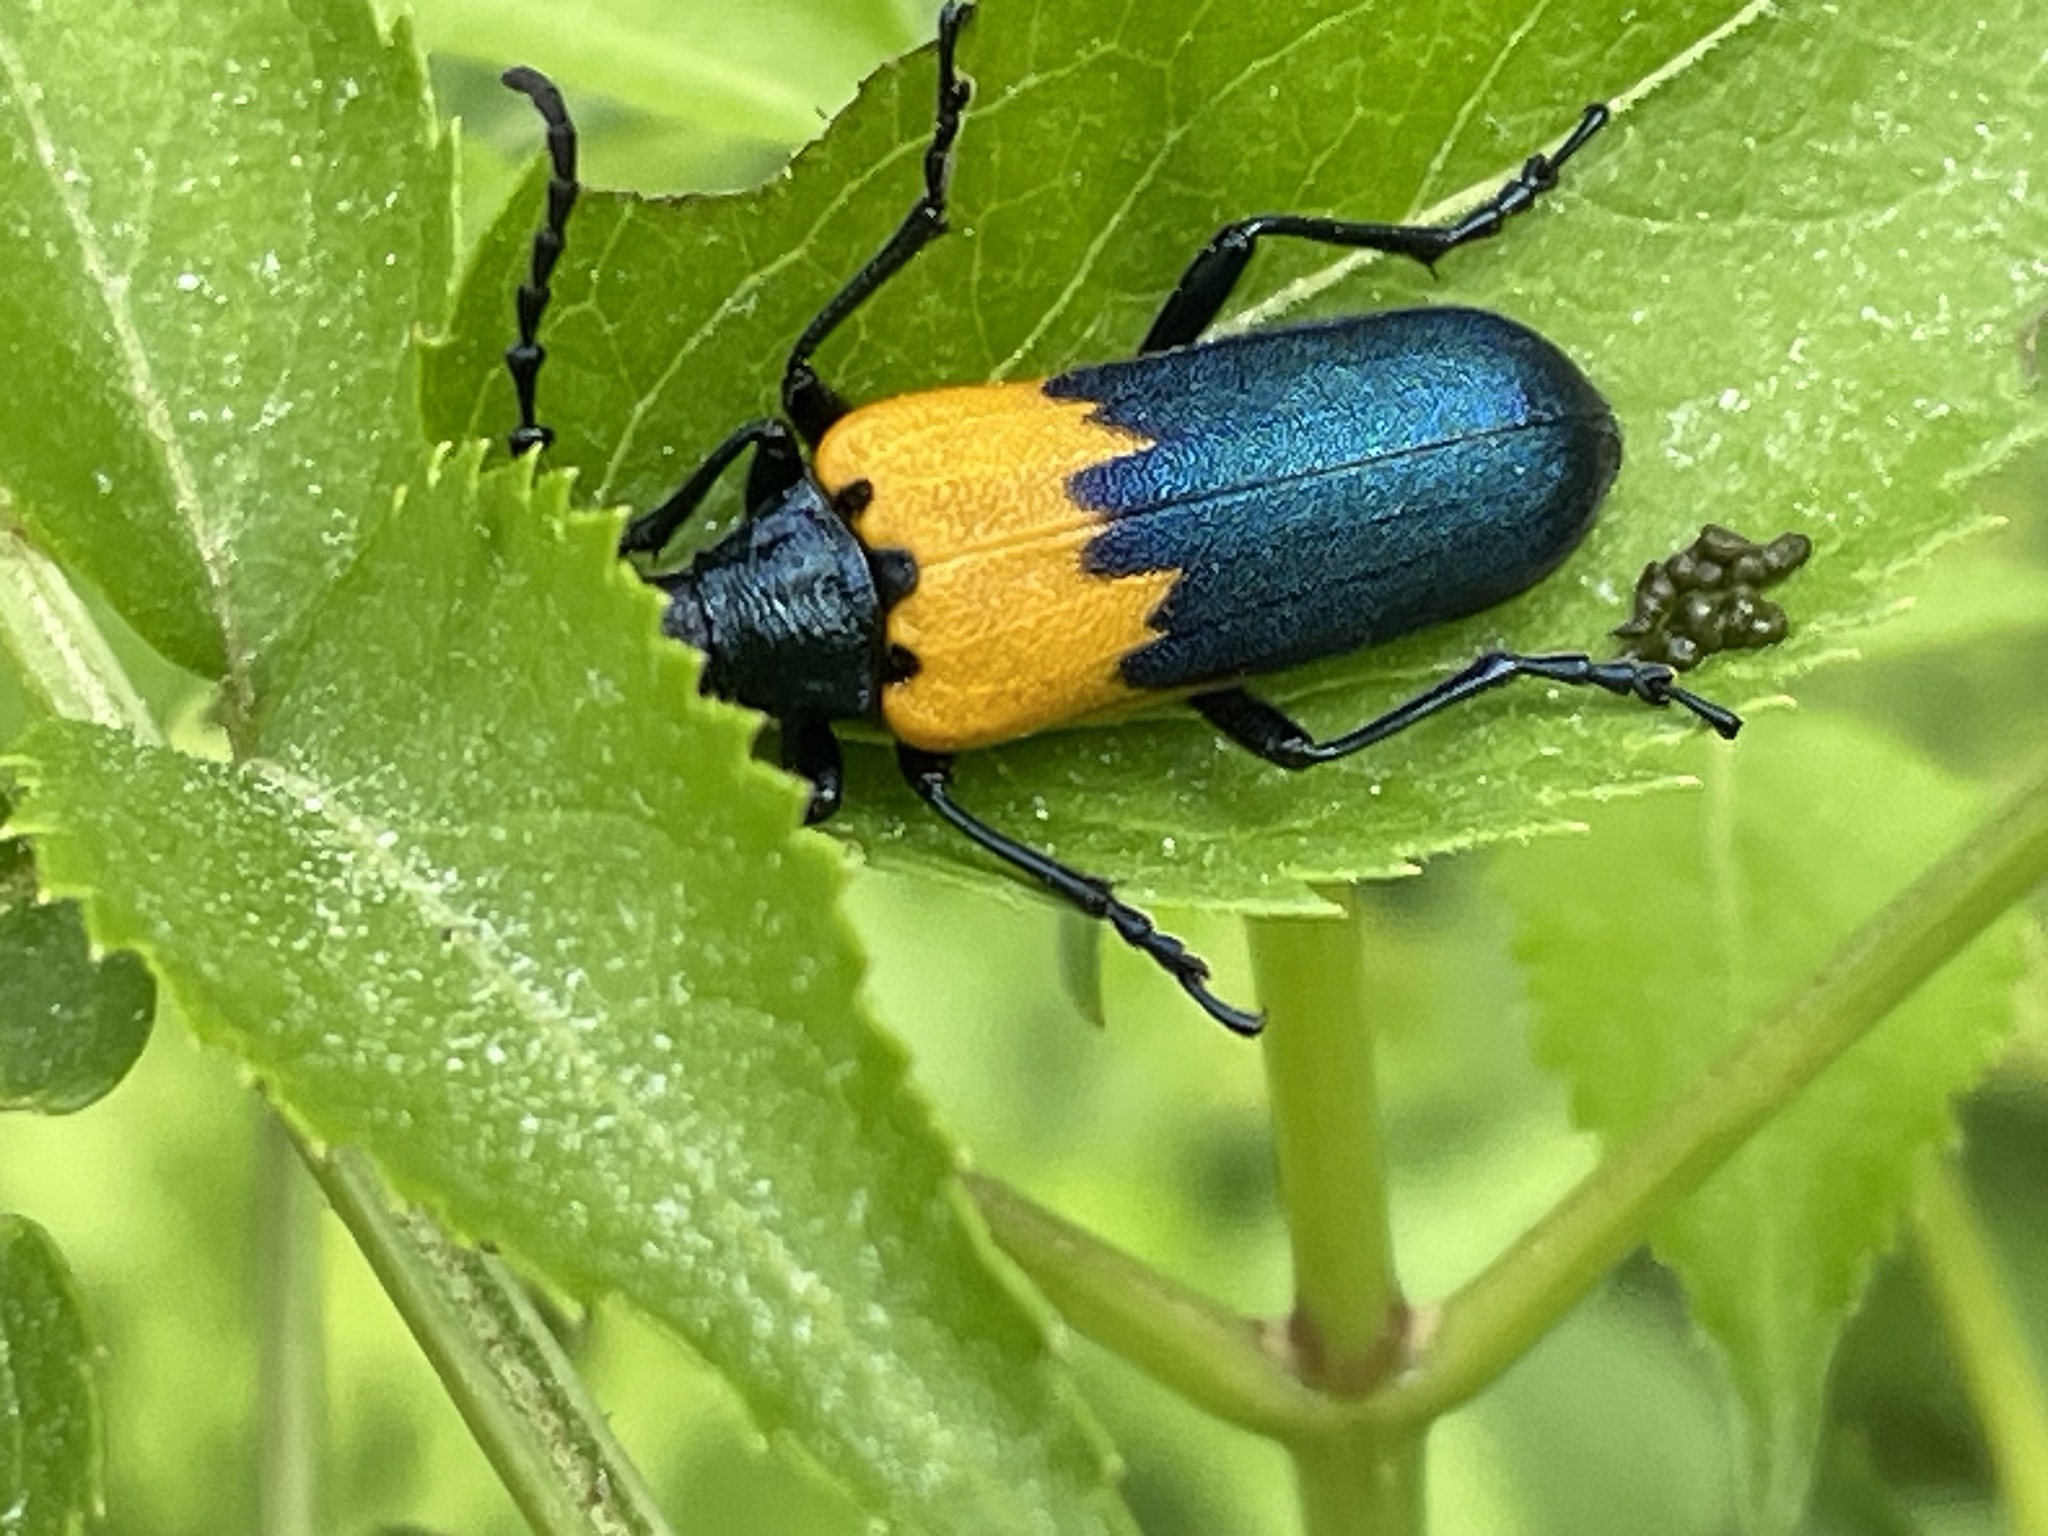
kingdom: Animalia
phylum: Arthropoda
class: Insecta
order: Coleoptera
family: Cerambycidae
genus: Desmocerus
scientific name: Desmocerus palliatus
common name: Eastern elderberry borer
